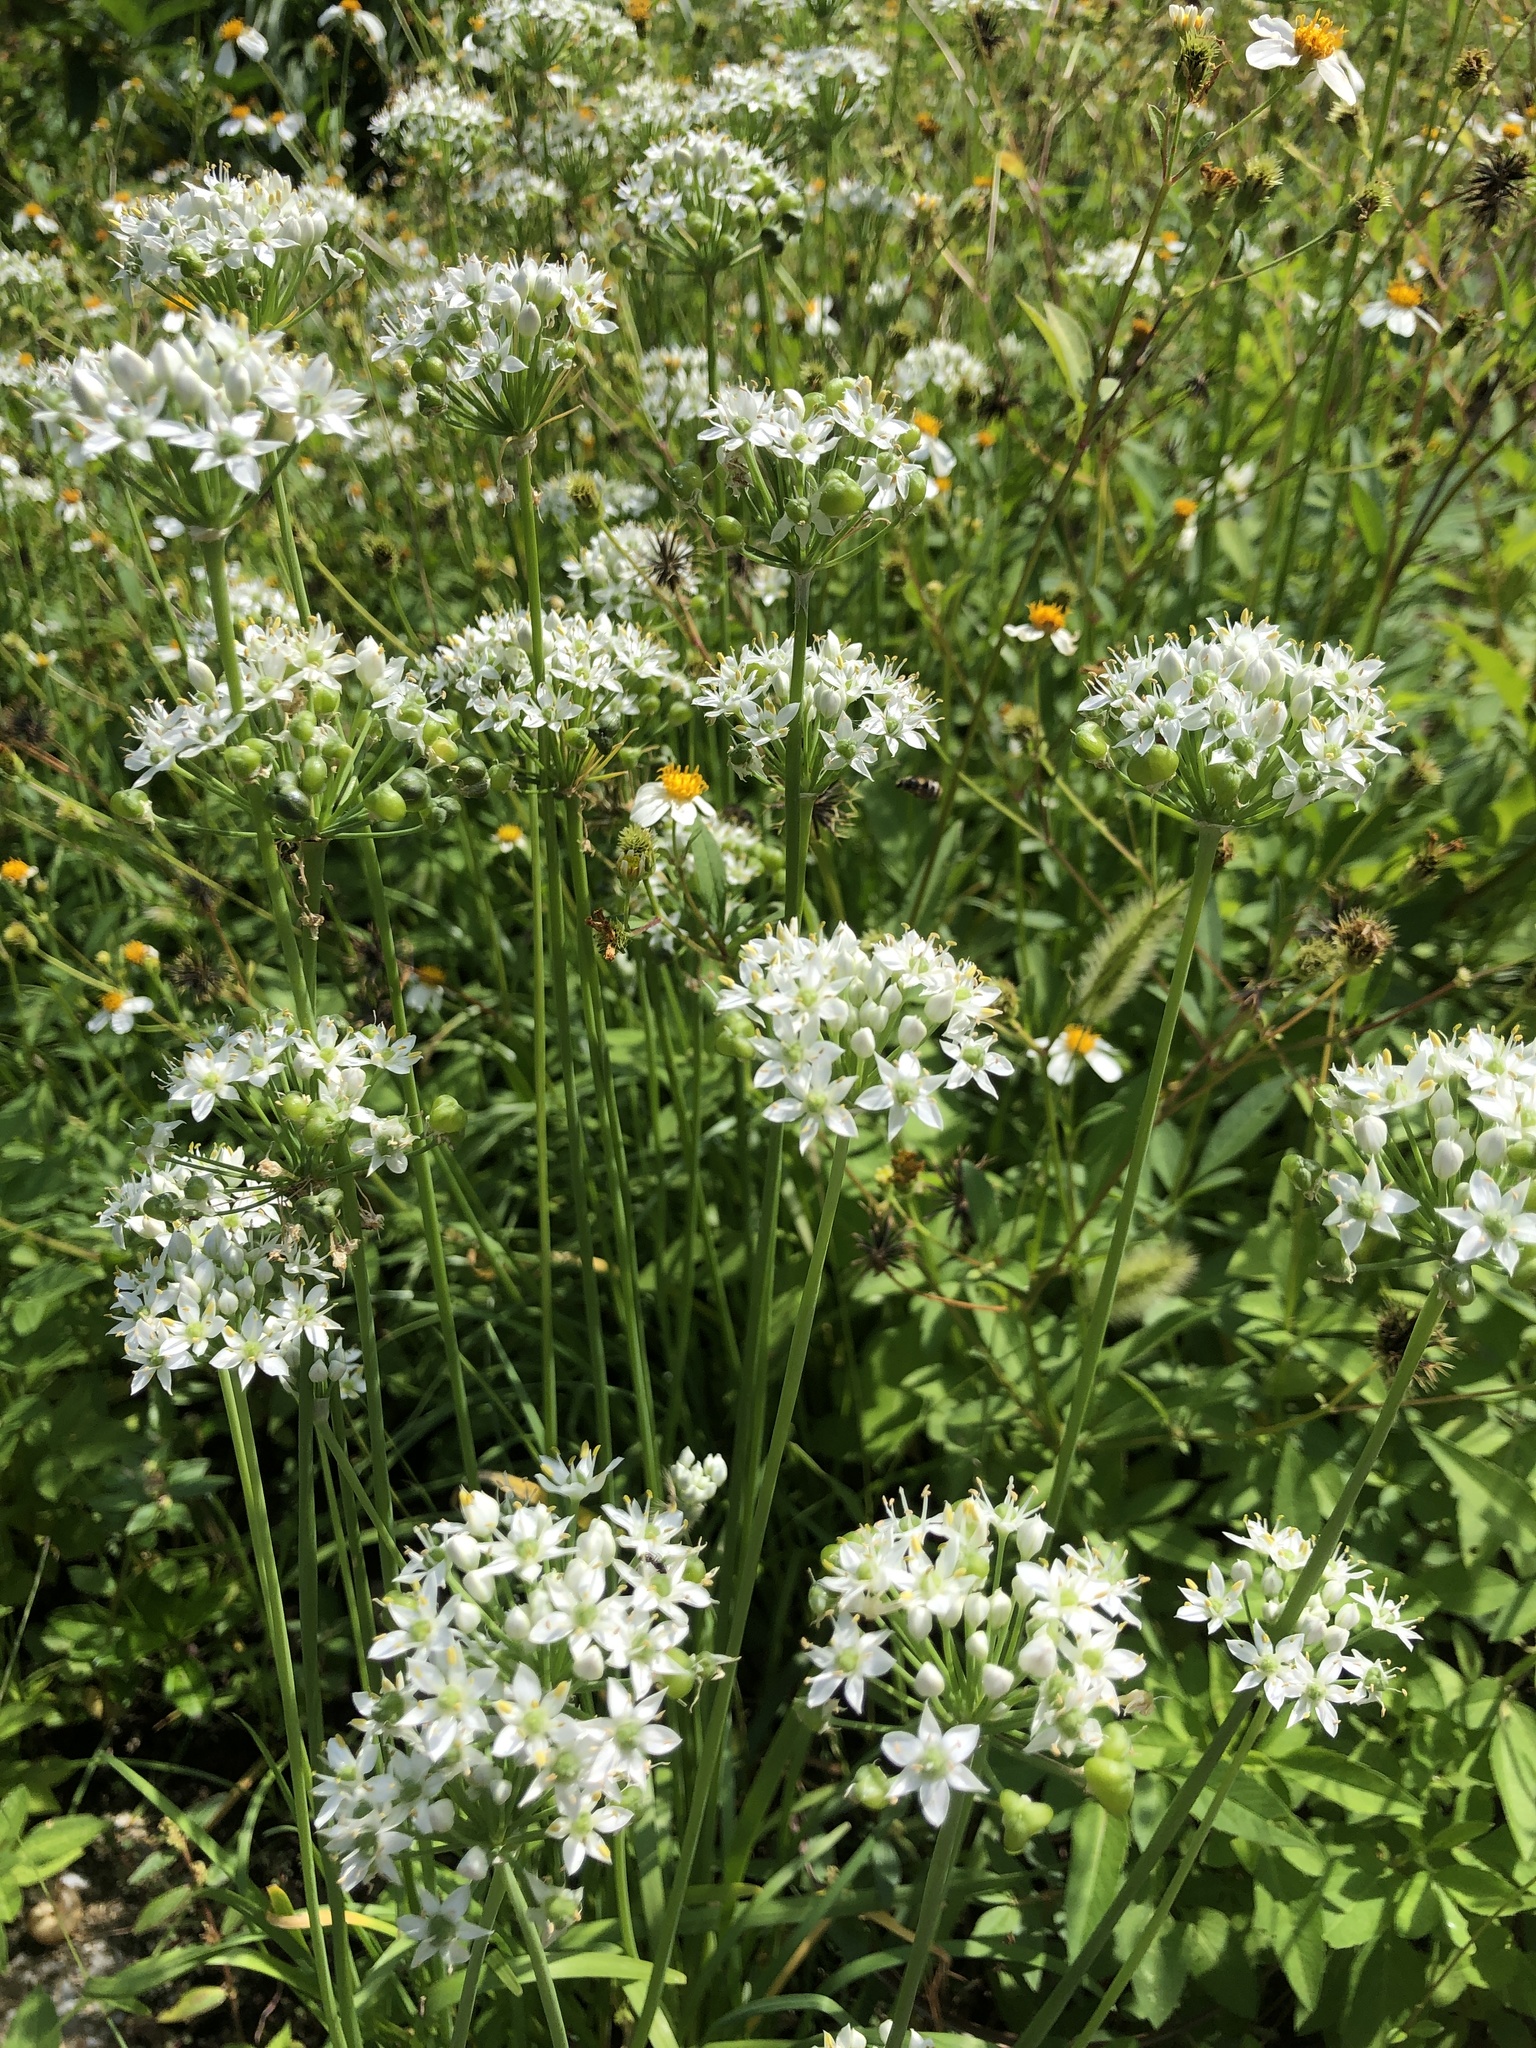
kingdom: Plantae
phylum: Tracheophyta
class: Liliopsida
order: Asparagales
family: Amaryllidaceae
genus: Allium
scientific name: Allium tuberosum
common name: Chinese chives
